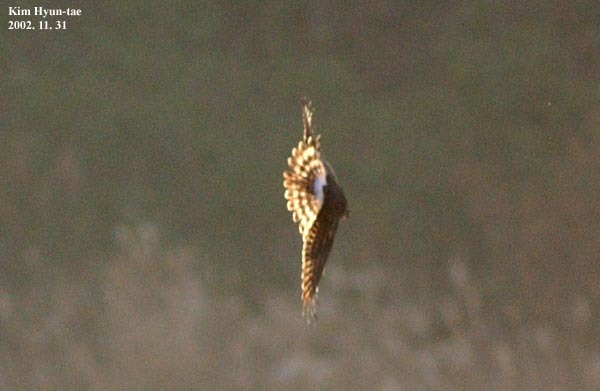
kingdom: Animalia
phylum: Chordata
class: Aves
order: Accipitriformes
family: Accipitridae
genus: Circus
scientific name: Circus cyaneus
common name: Hen harrier
